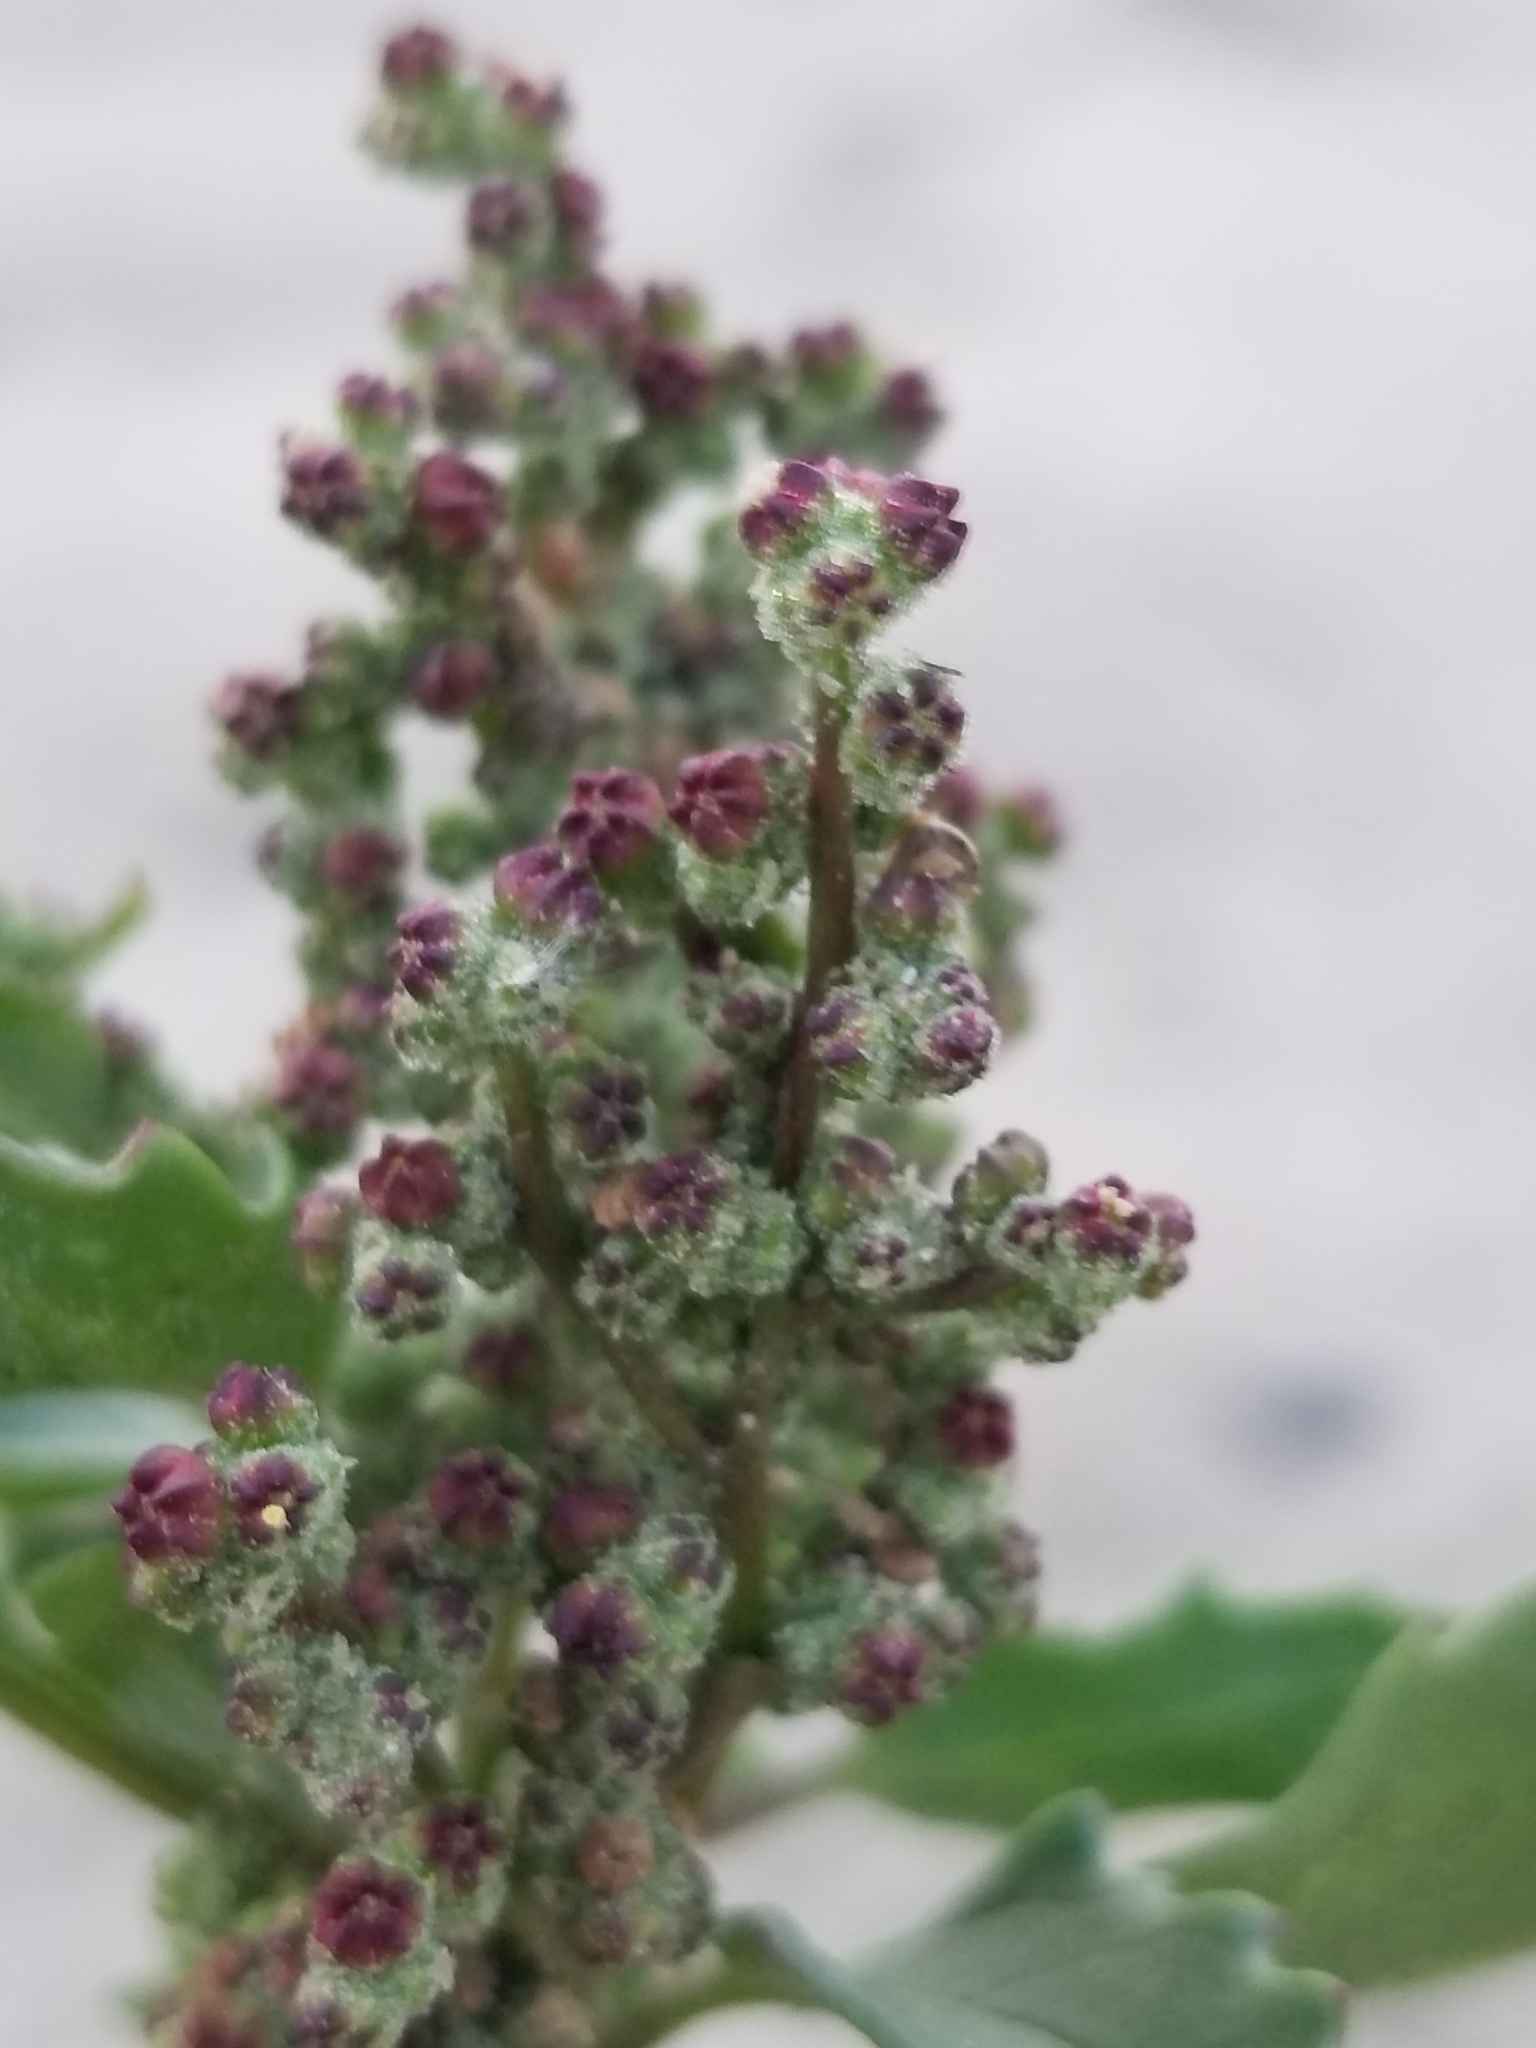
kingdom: Plantae
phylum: Tracheophyta
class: Magnoliopsida
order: Caryophyllales
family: Amaranthaceae
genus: Chenopodiastrum
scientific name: Chenopodiastrum murale
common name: Sowbane
